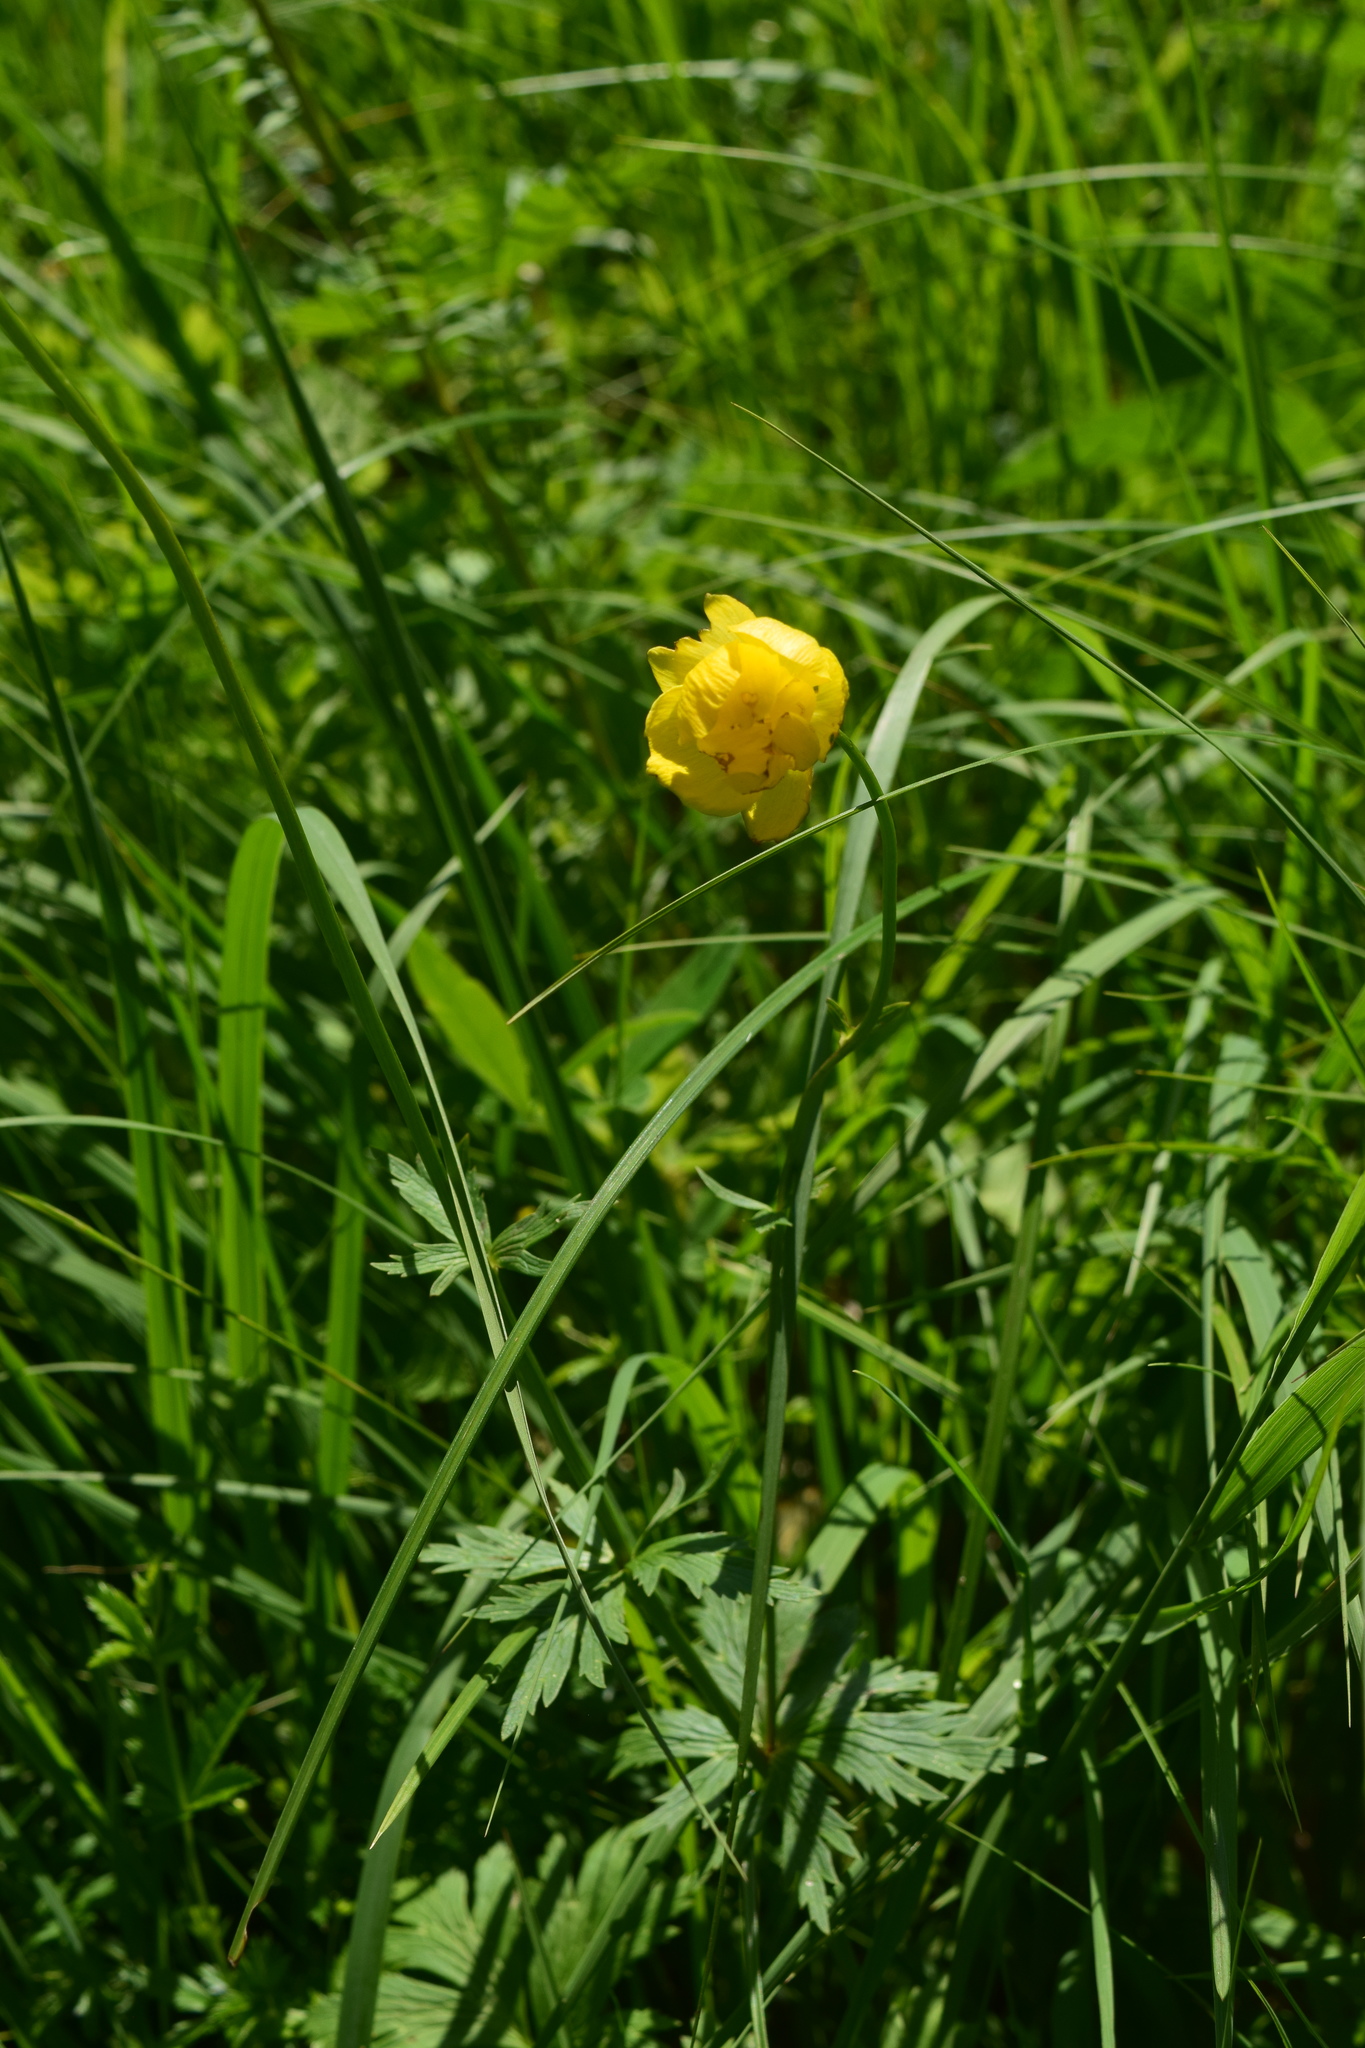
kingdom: Plantae
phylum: Tracheophyta
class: Magnoliopsida
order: Ranunculales
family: Ranunculaceae
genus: Trollius
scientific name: Trollius europaeus
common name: European globeflower
